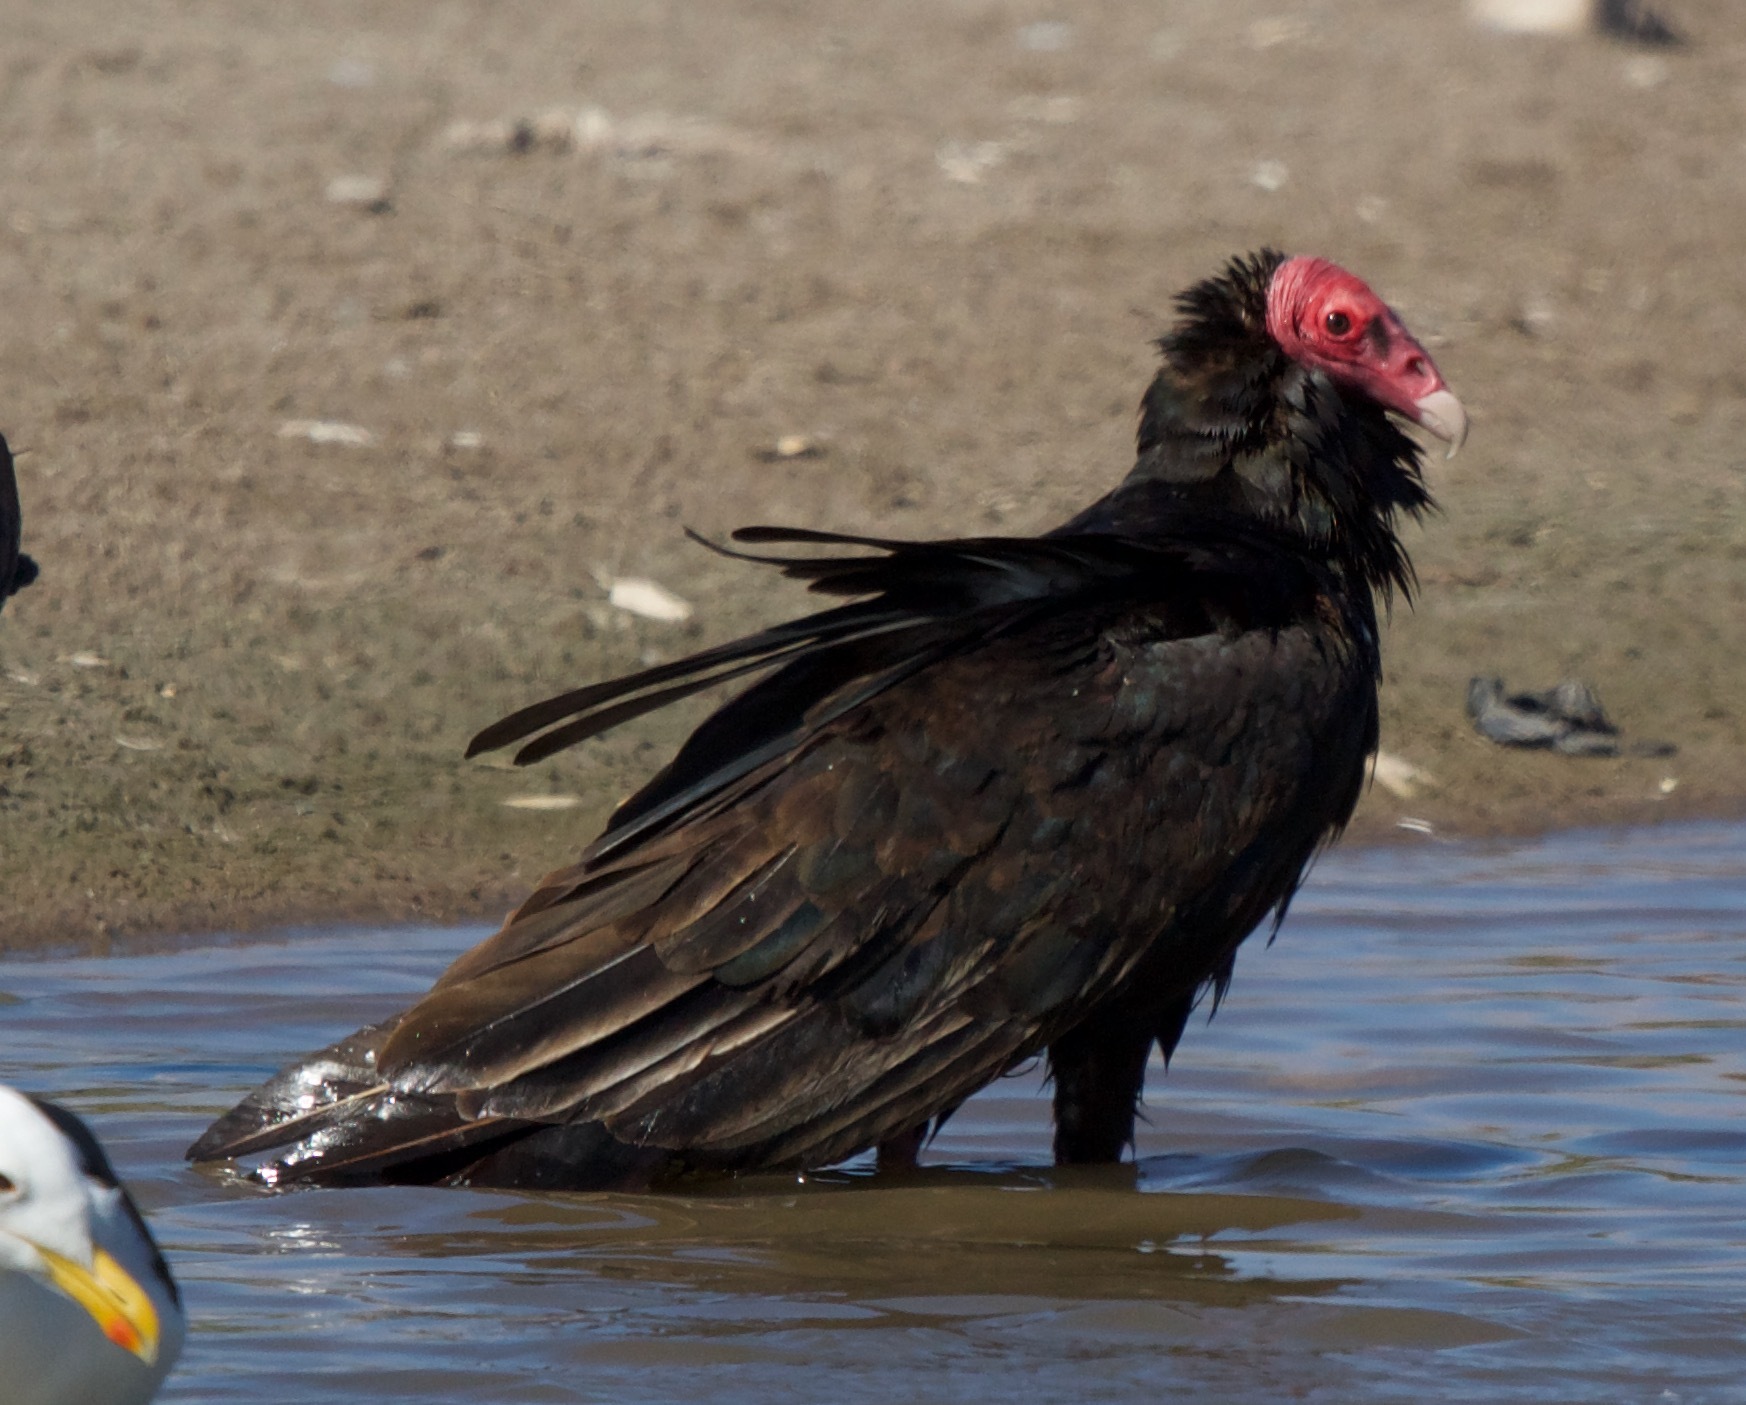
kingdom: Animalia
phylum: Chordata
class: Aves
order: Accipitriformes
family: Cathartidae
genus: Cathartes
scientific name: Cathartes aura
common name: Turkey vulture
